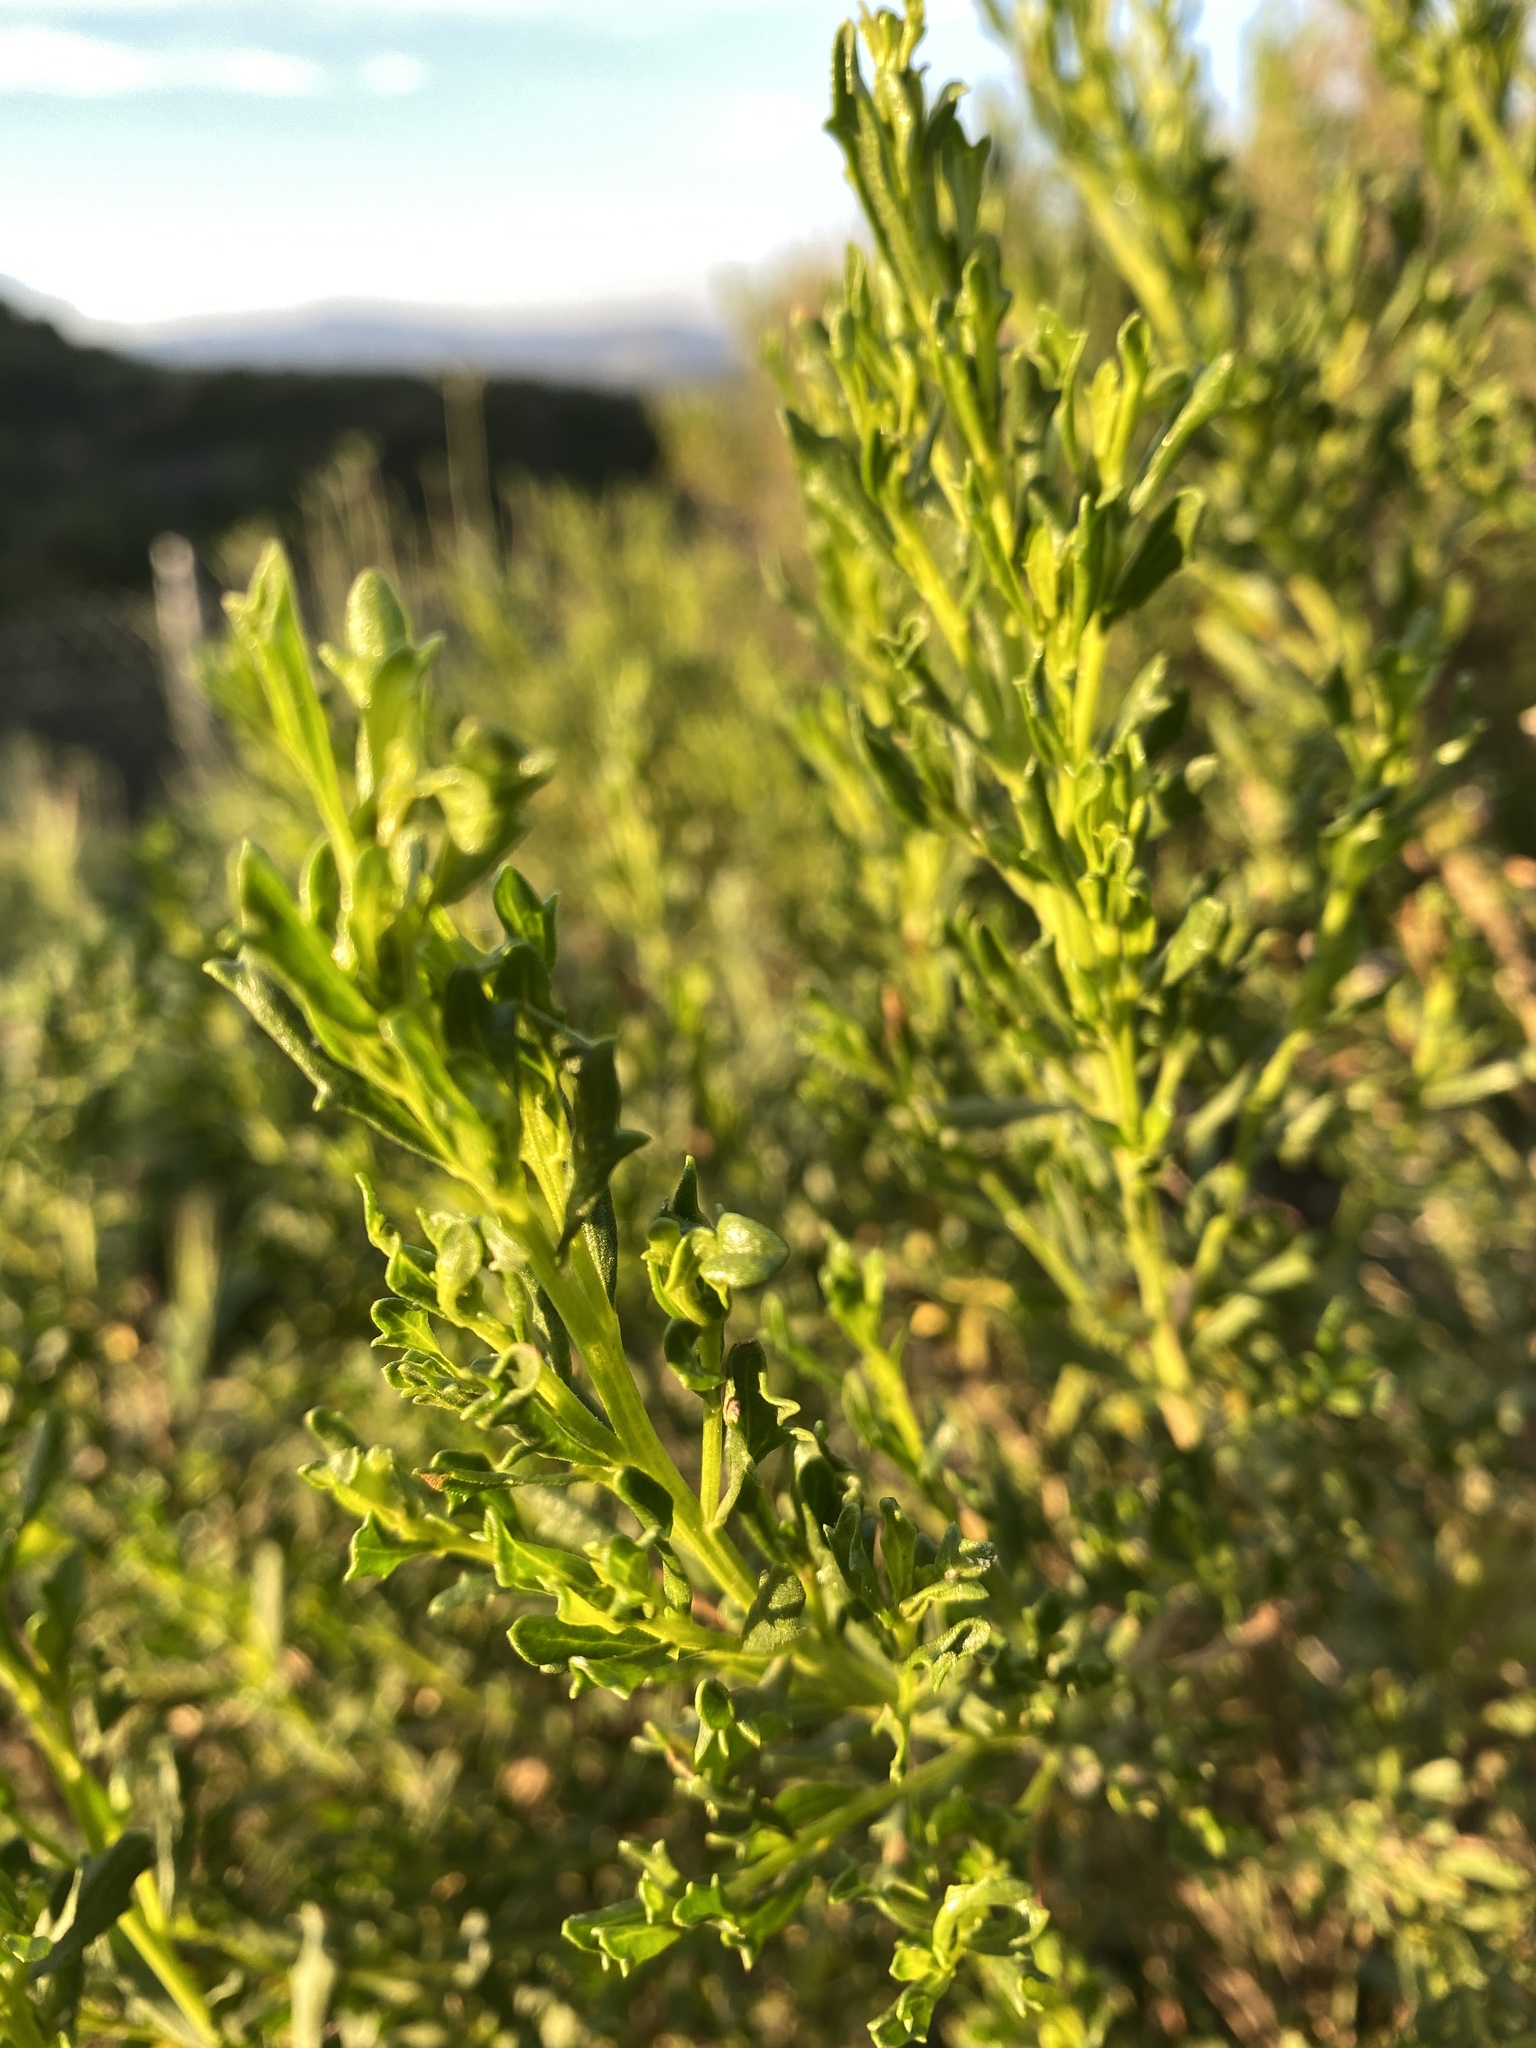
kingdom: Plantae
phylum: Tracheophyta
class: Magnoliopsida
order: Asterales
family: Asteraceae
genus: Baccharis
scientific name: Baccharis pilularis
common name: Coyotebrush
